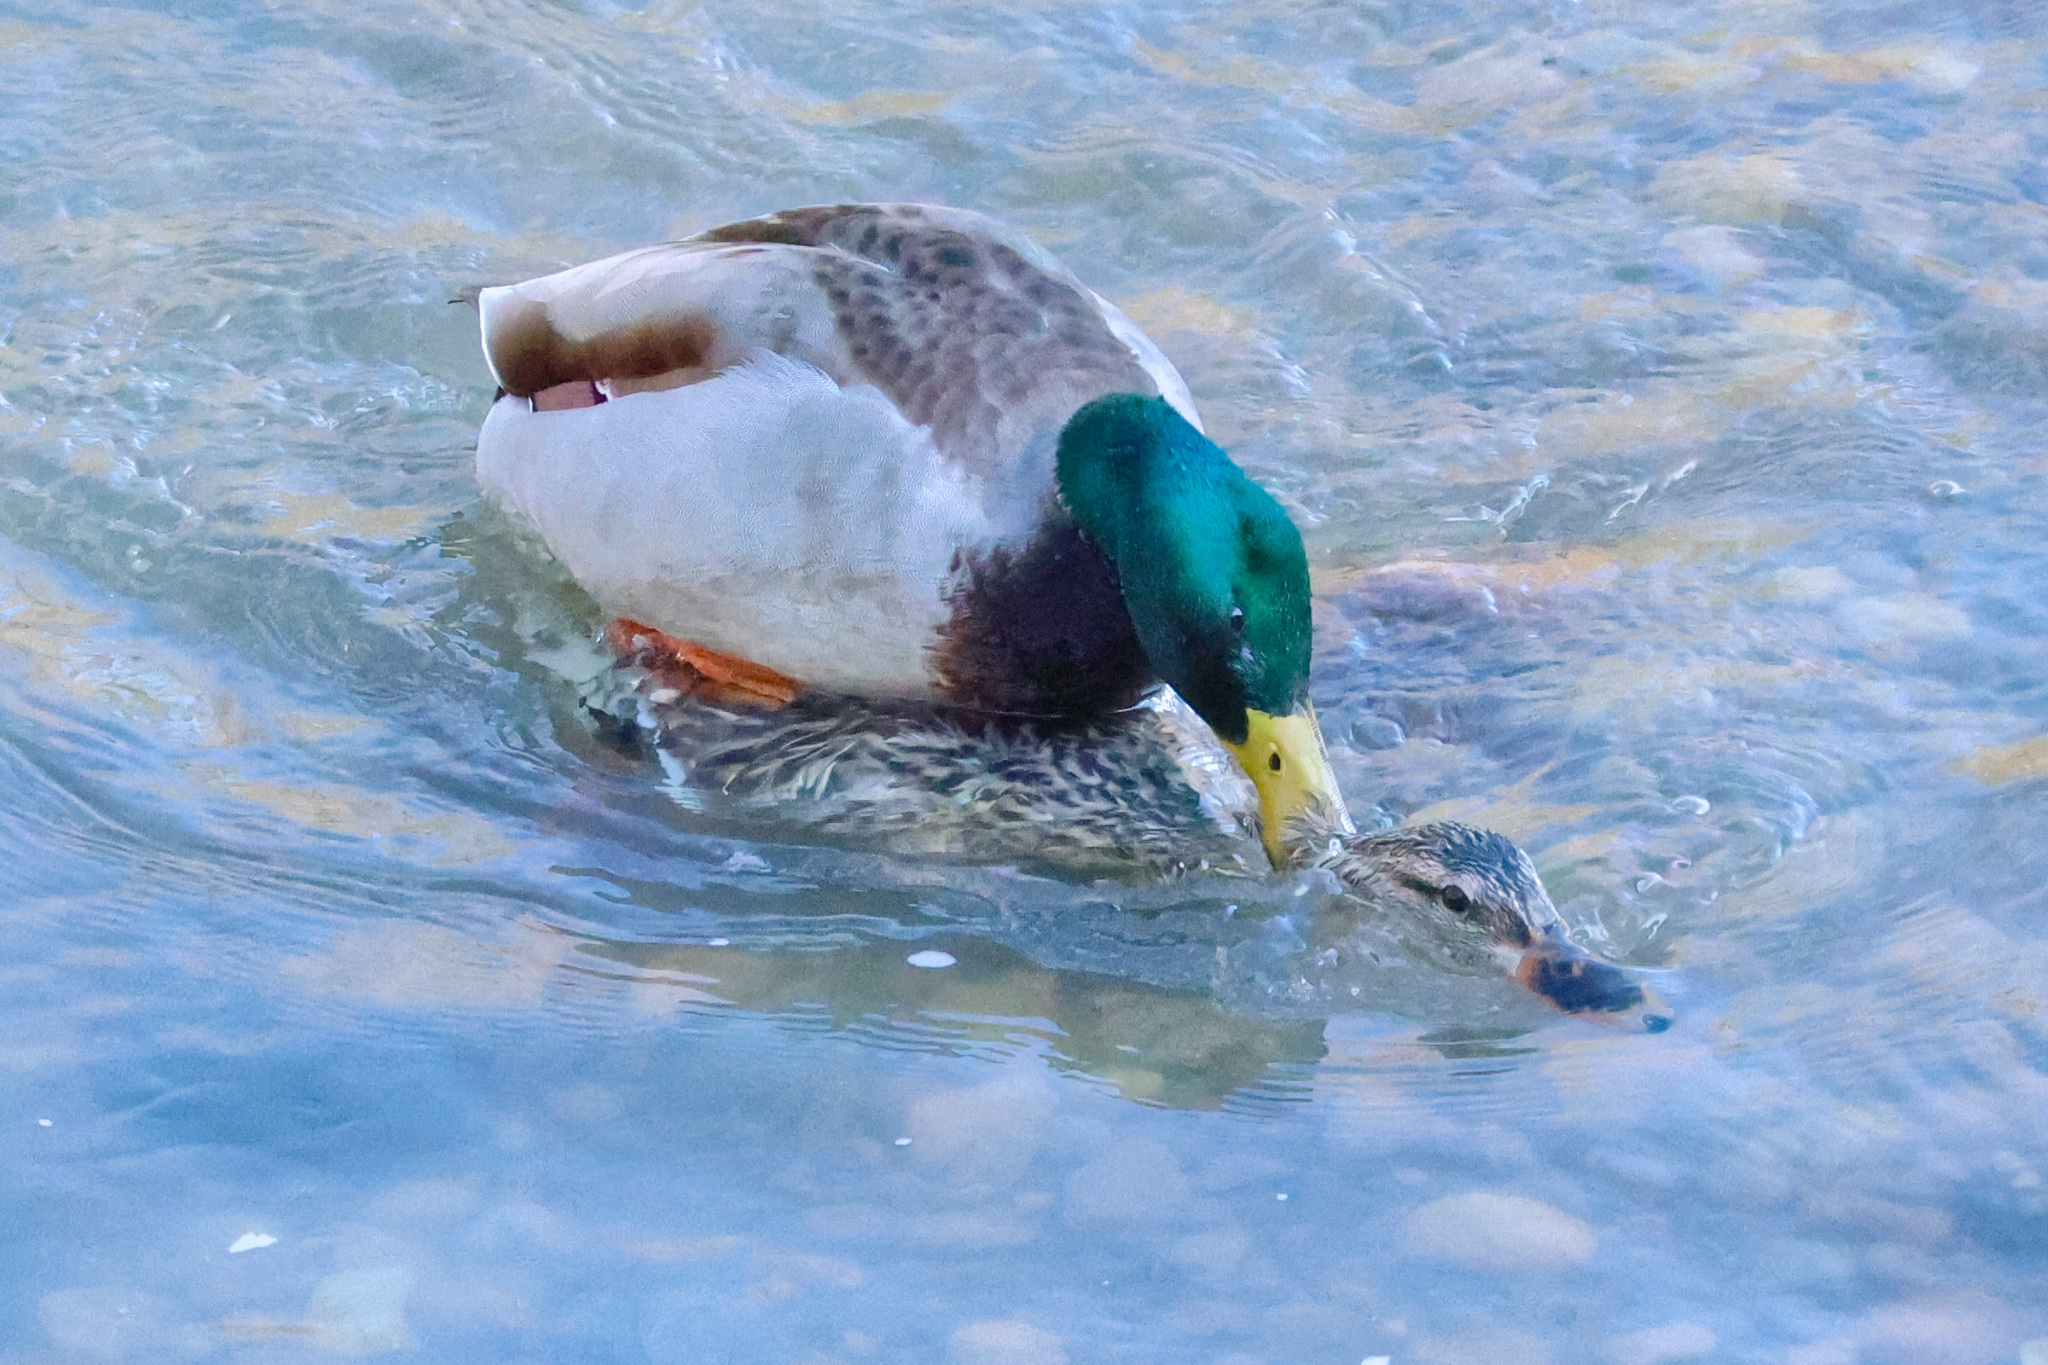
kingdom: Animalia
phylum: Chordata
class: Aves
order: Anseriformes
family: Anatidae
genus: Anas
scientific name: Anas platyrhynchos
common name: Mallard
